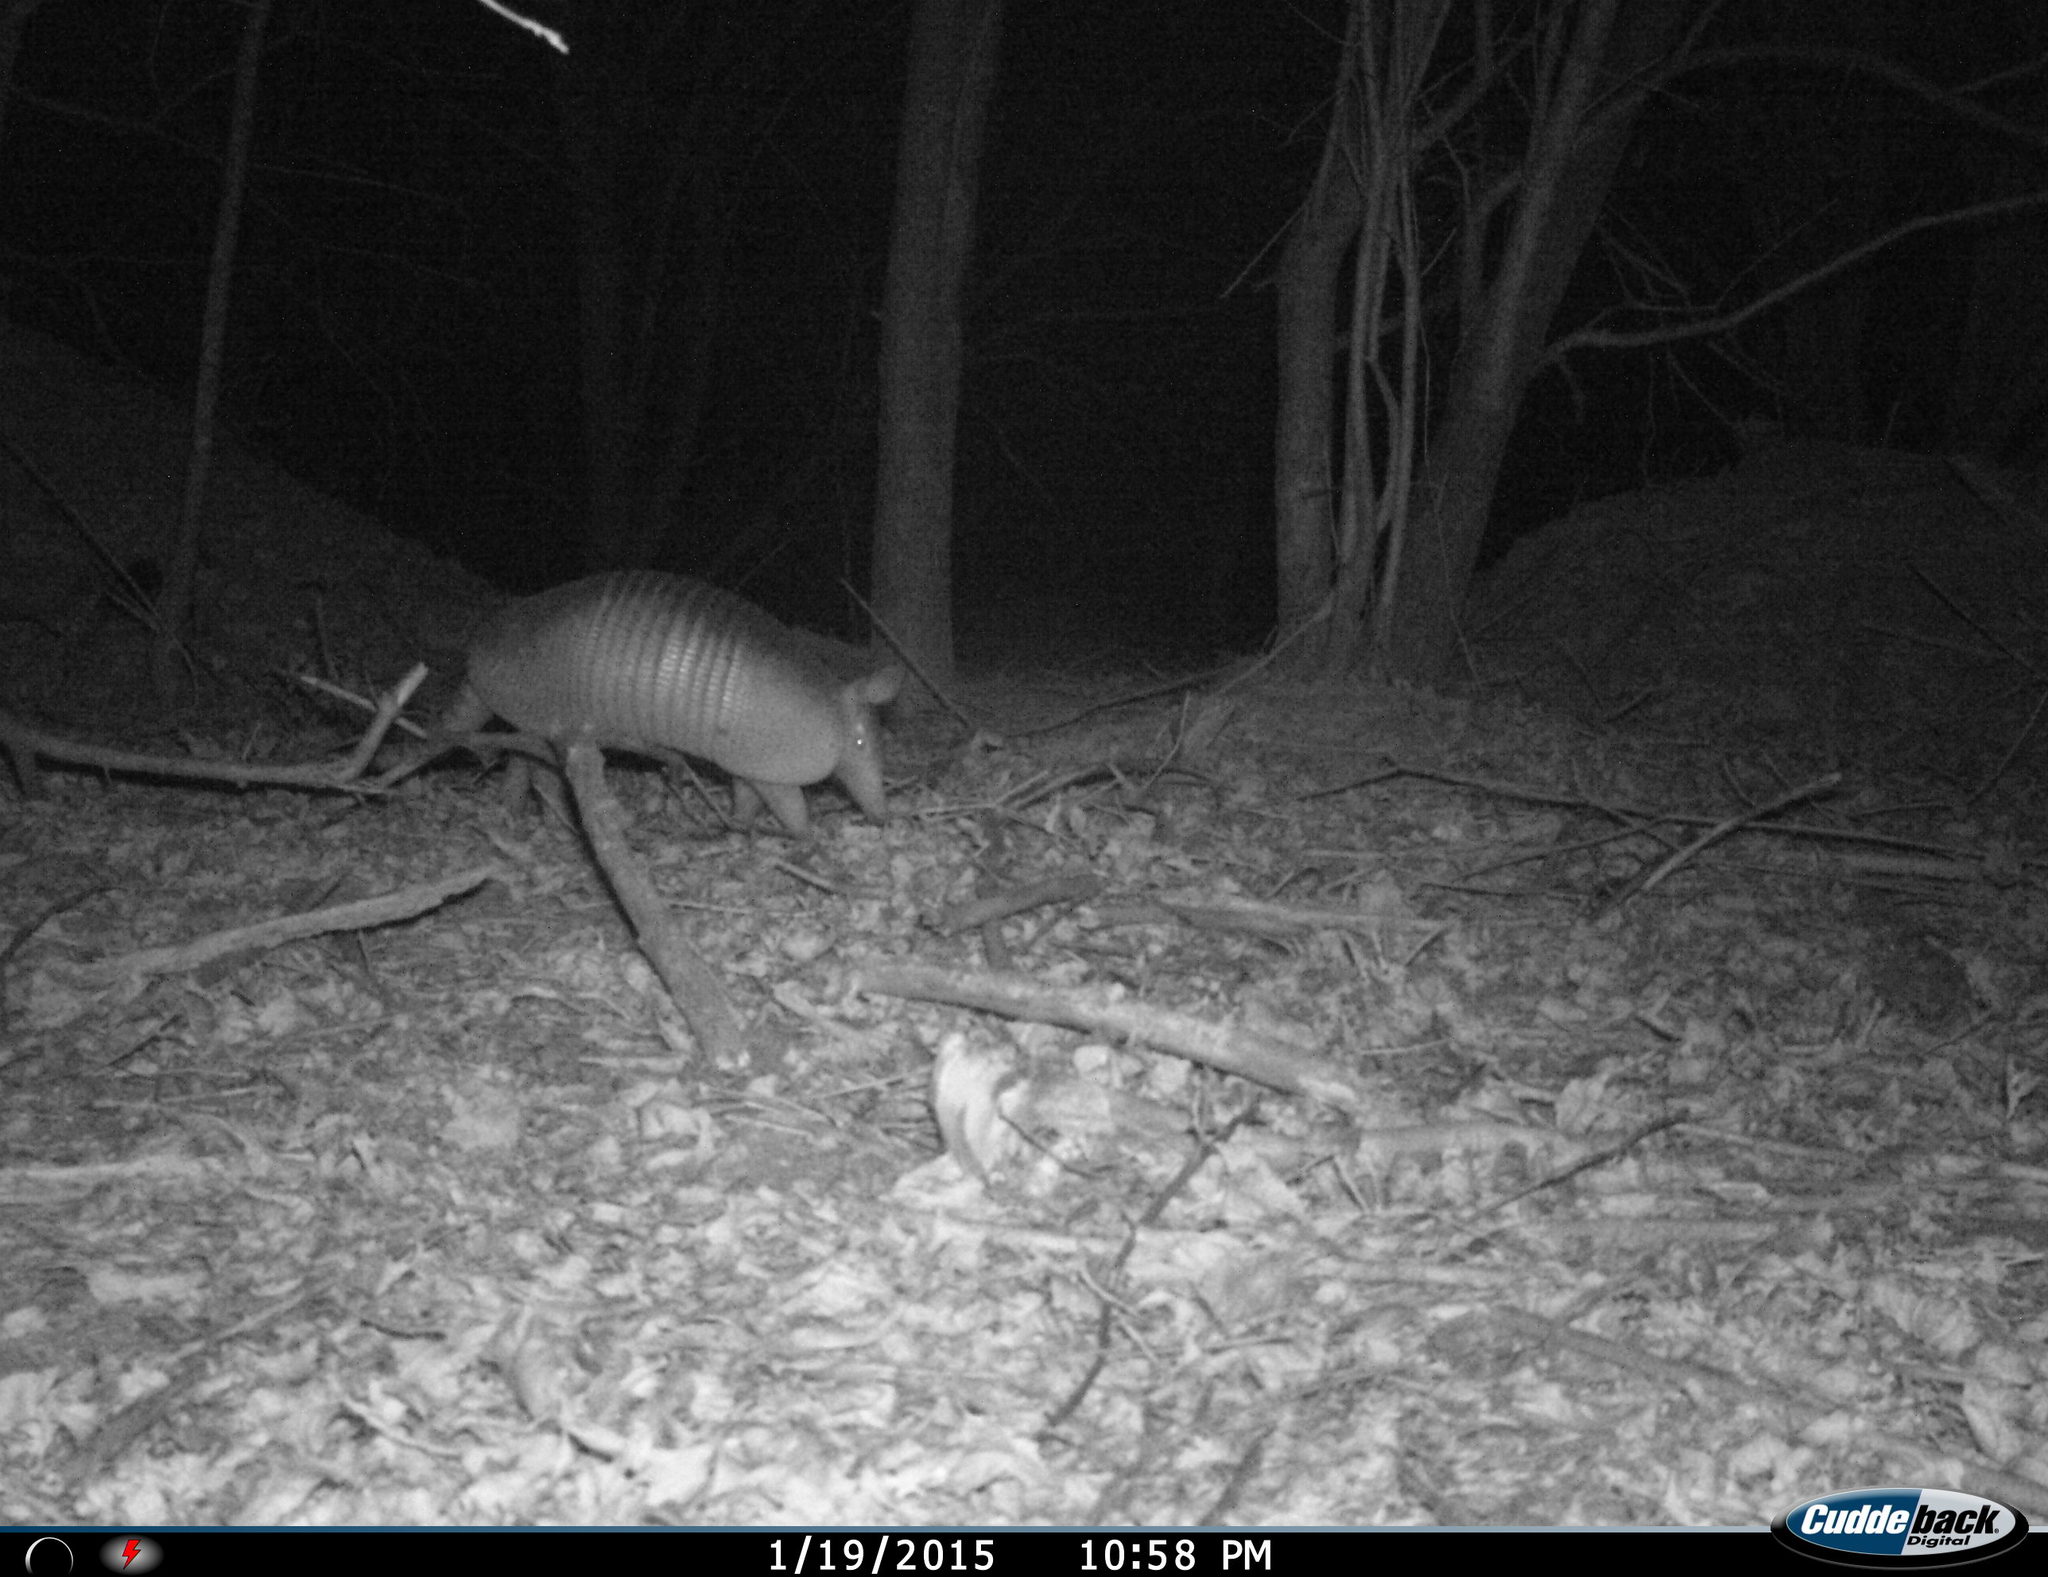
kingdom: Animalia
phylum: Chordata
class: Mammalia
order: Cingulata
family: Dasypodidae
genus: Dasypus
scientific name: Dasypus novemcinctus
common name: Nine-banded armadillo
